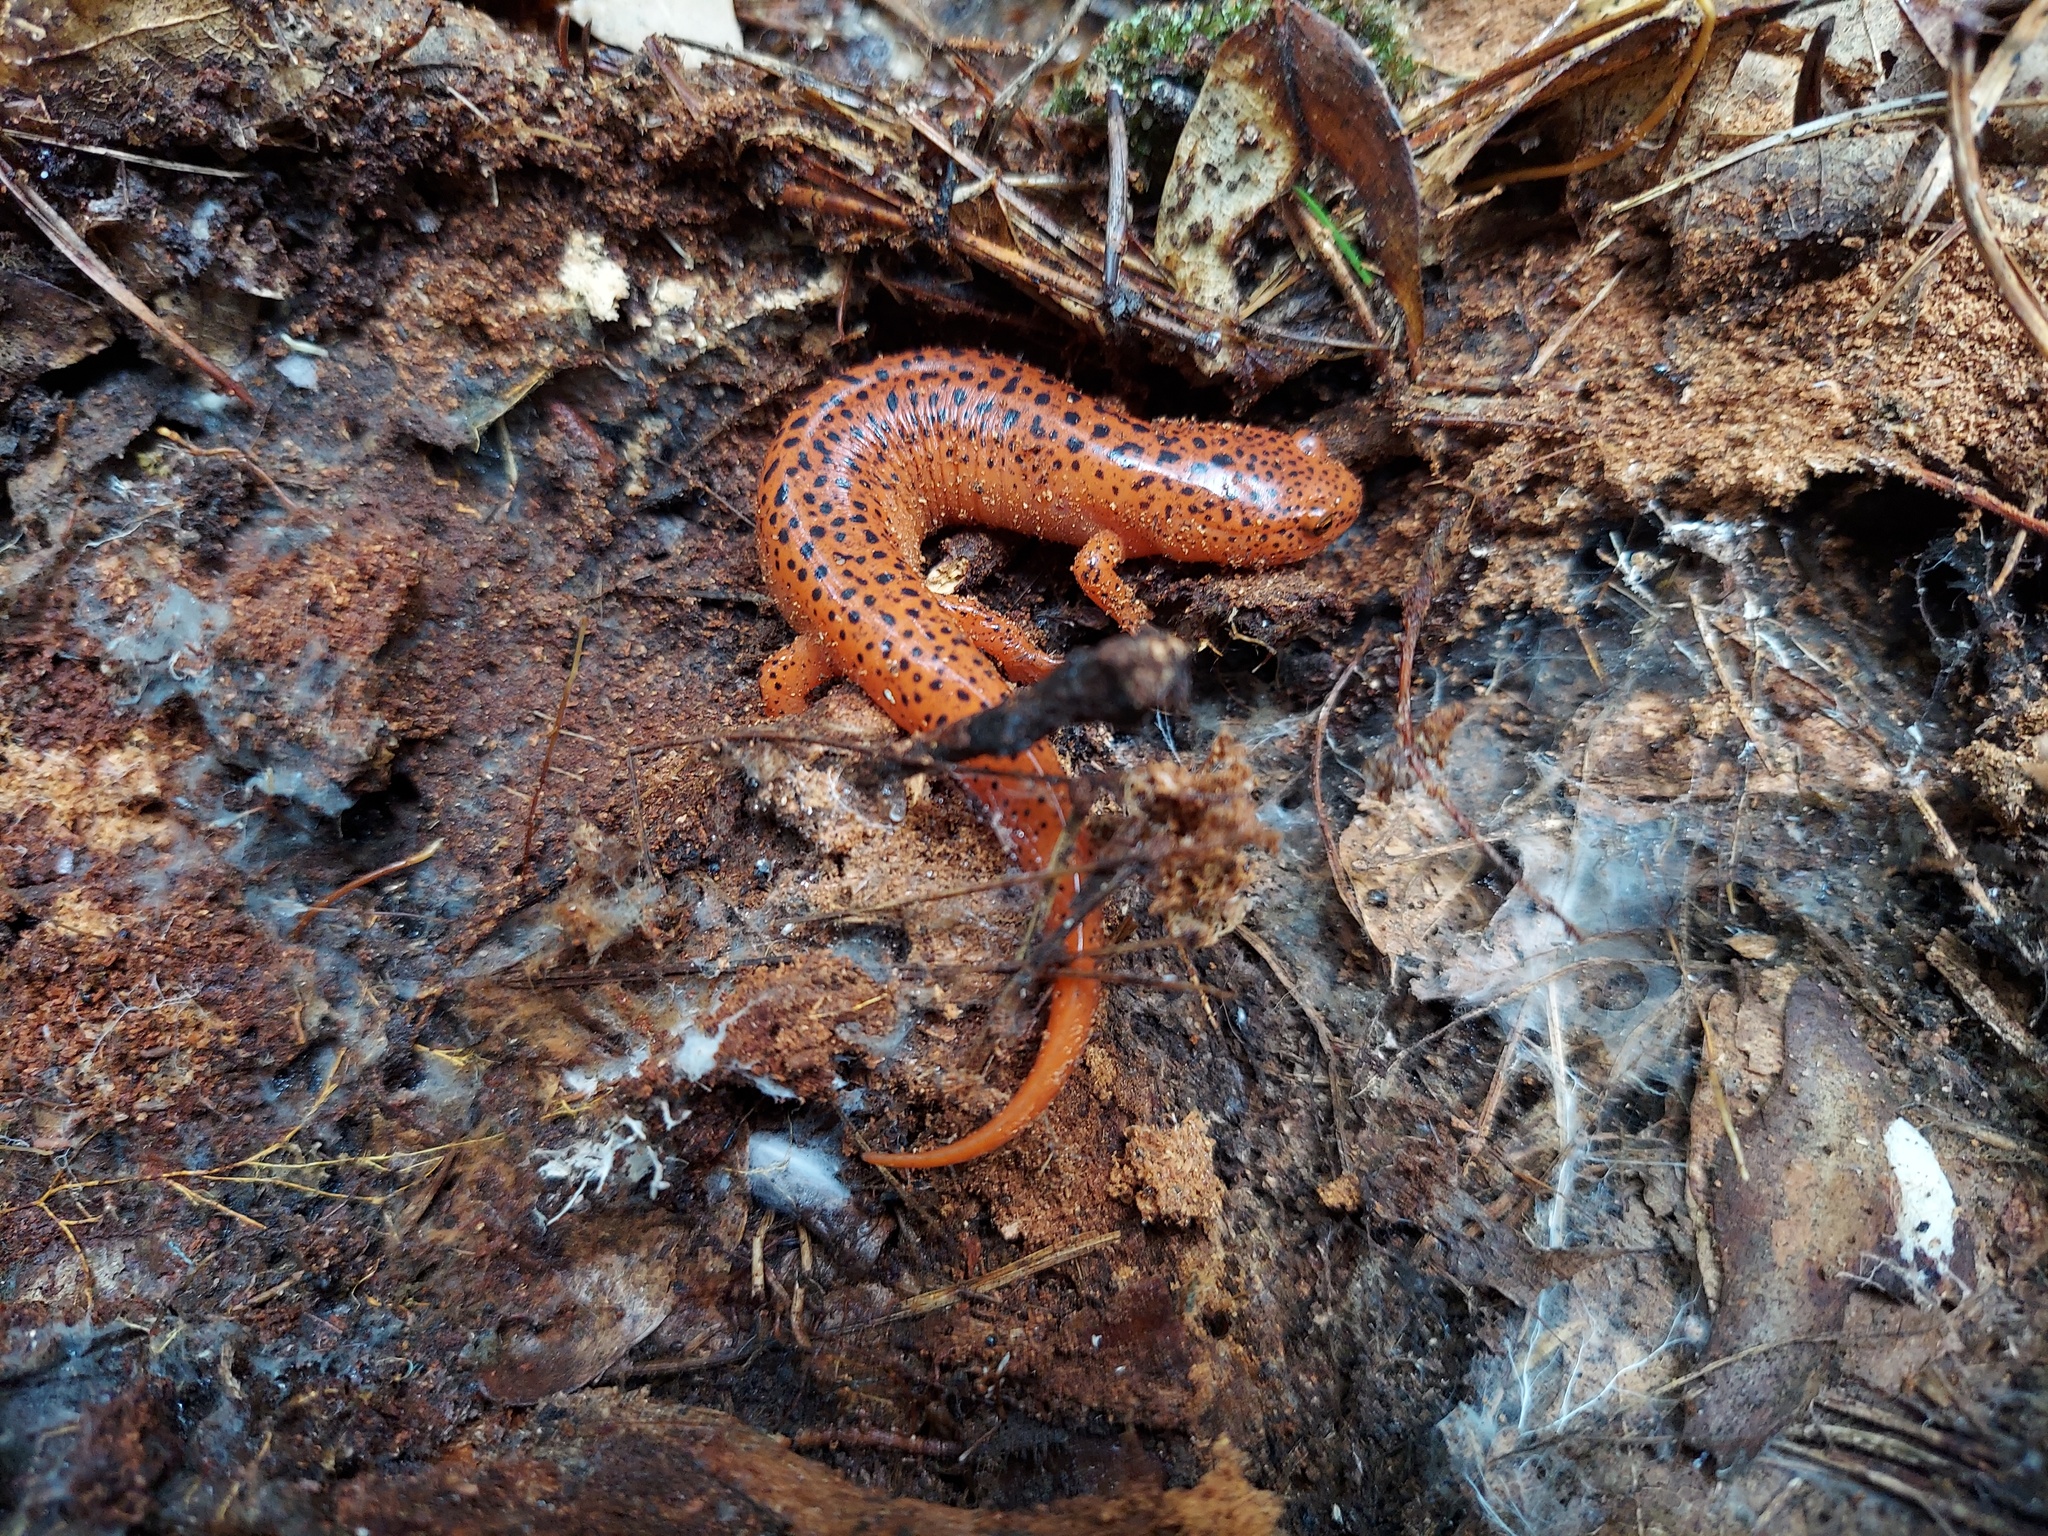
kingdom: Animalia
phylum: Chordata
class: Amphibia
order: Caudata
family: Plethodontidae
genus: Pseudotriton
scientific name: Pseudotriton ruber
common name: Red salamander
